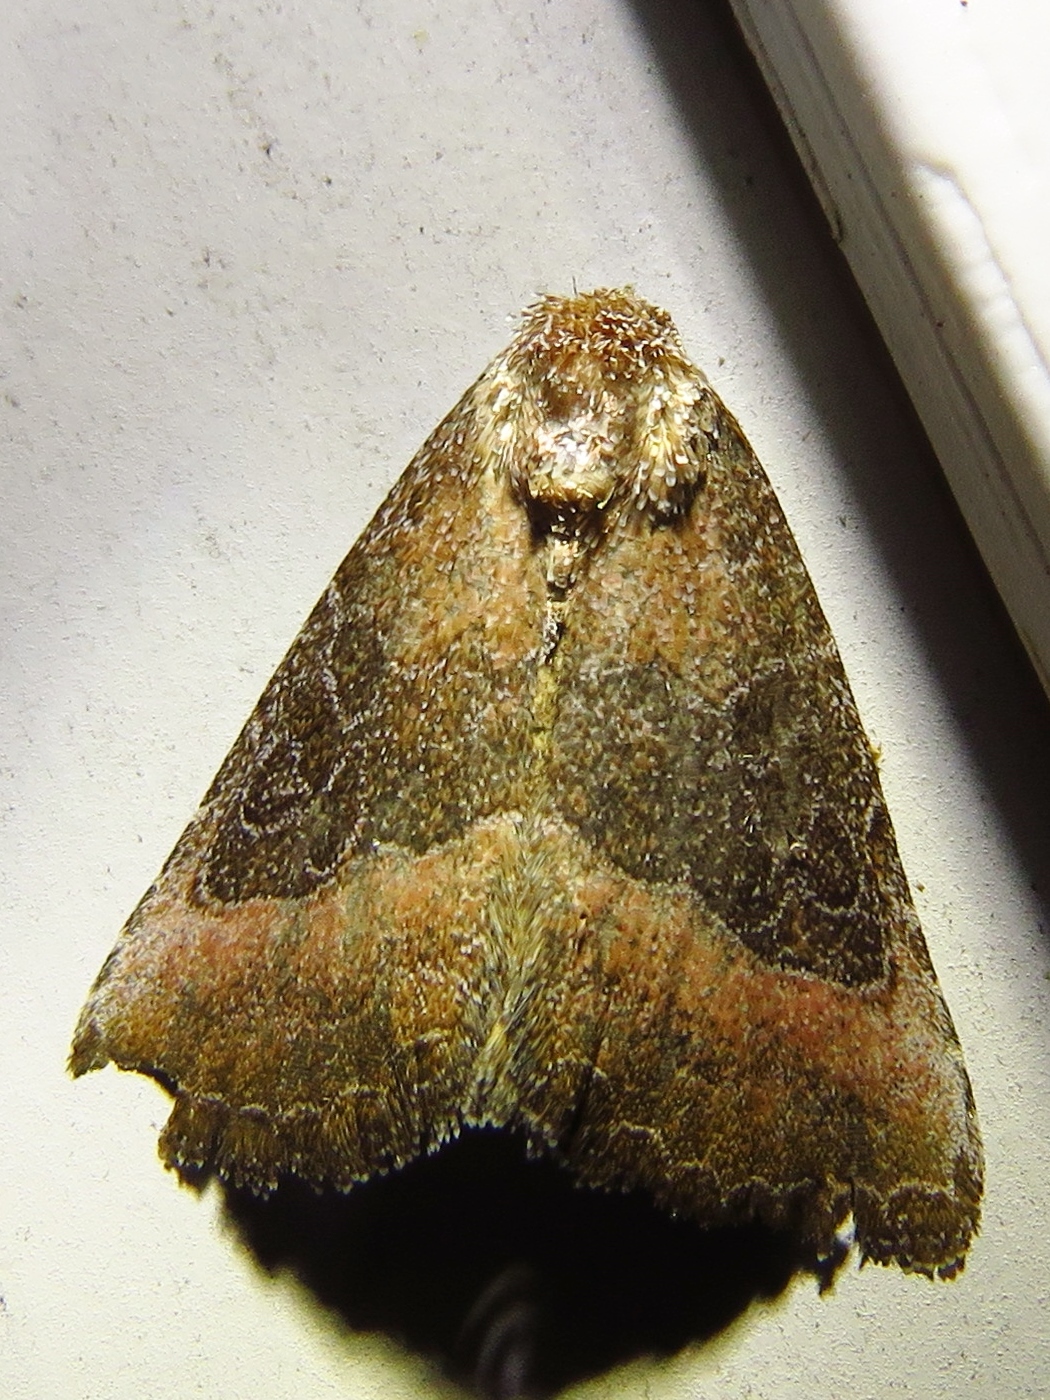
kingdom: Animalia
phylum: Arthropoda
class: Insecta
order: Lepidoptera
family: Noctuidae
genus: Ogdoconta
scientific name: Ogdoconta cinereola
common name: Common pinkband
